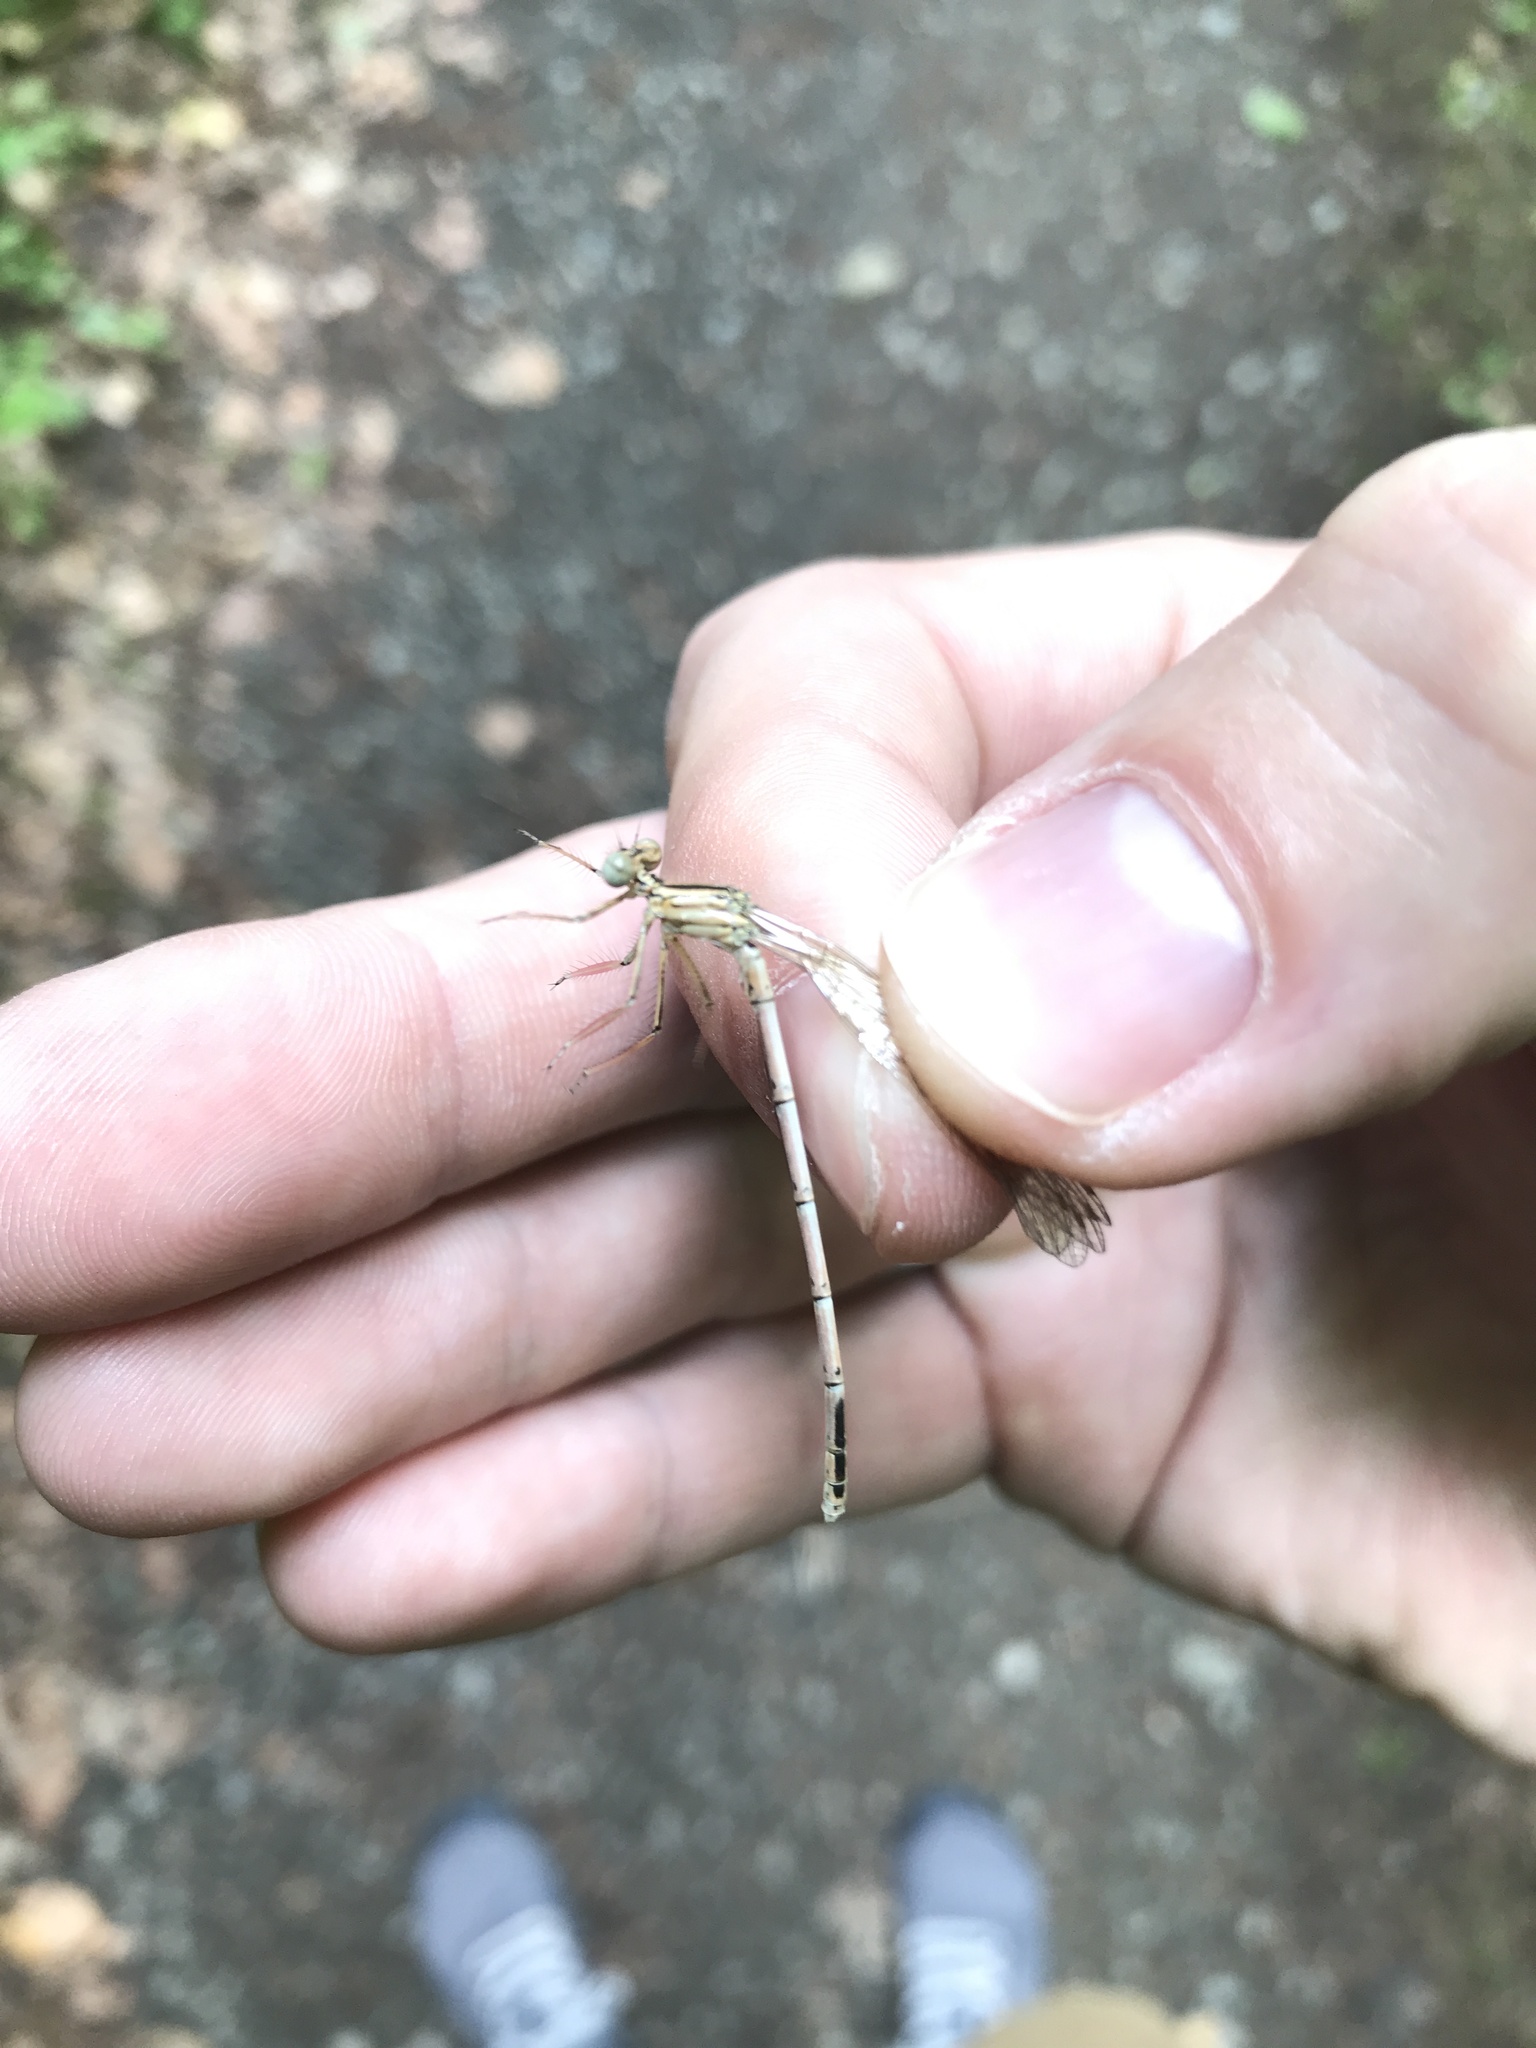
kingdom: Animalia
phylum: Arthropoda
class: Insecta
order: Odonata
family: Platycnemididae
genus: Platycnemis
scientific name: Platycnemis pennipes
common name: White-legged damselfly
